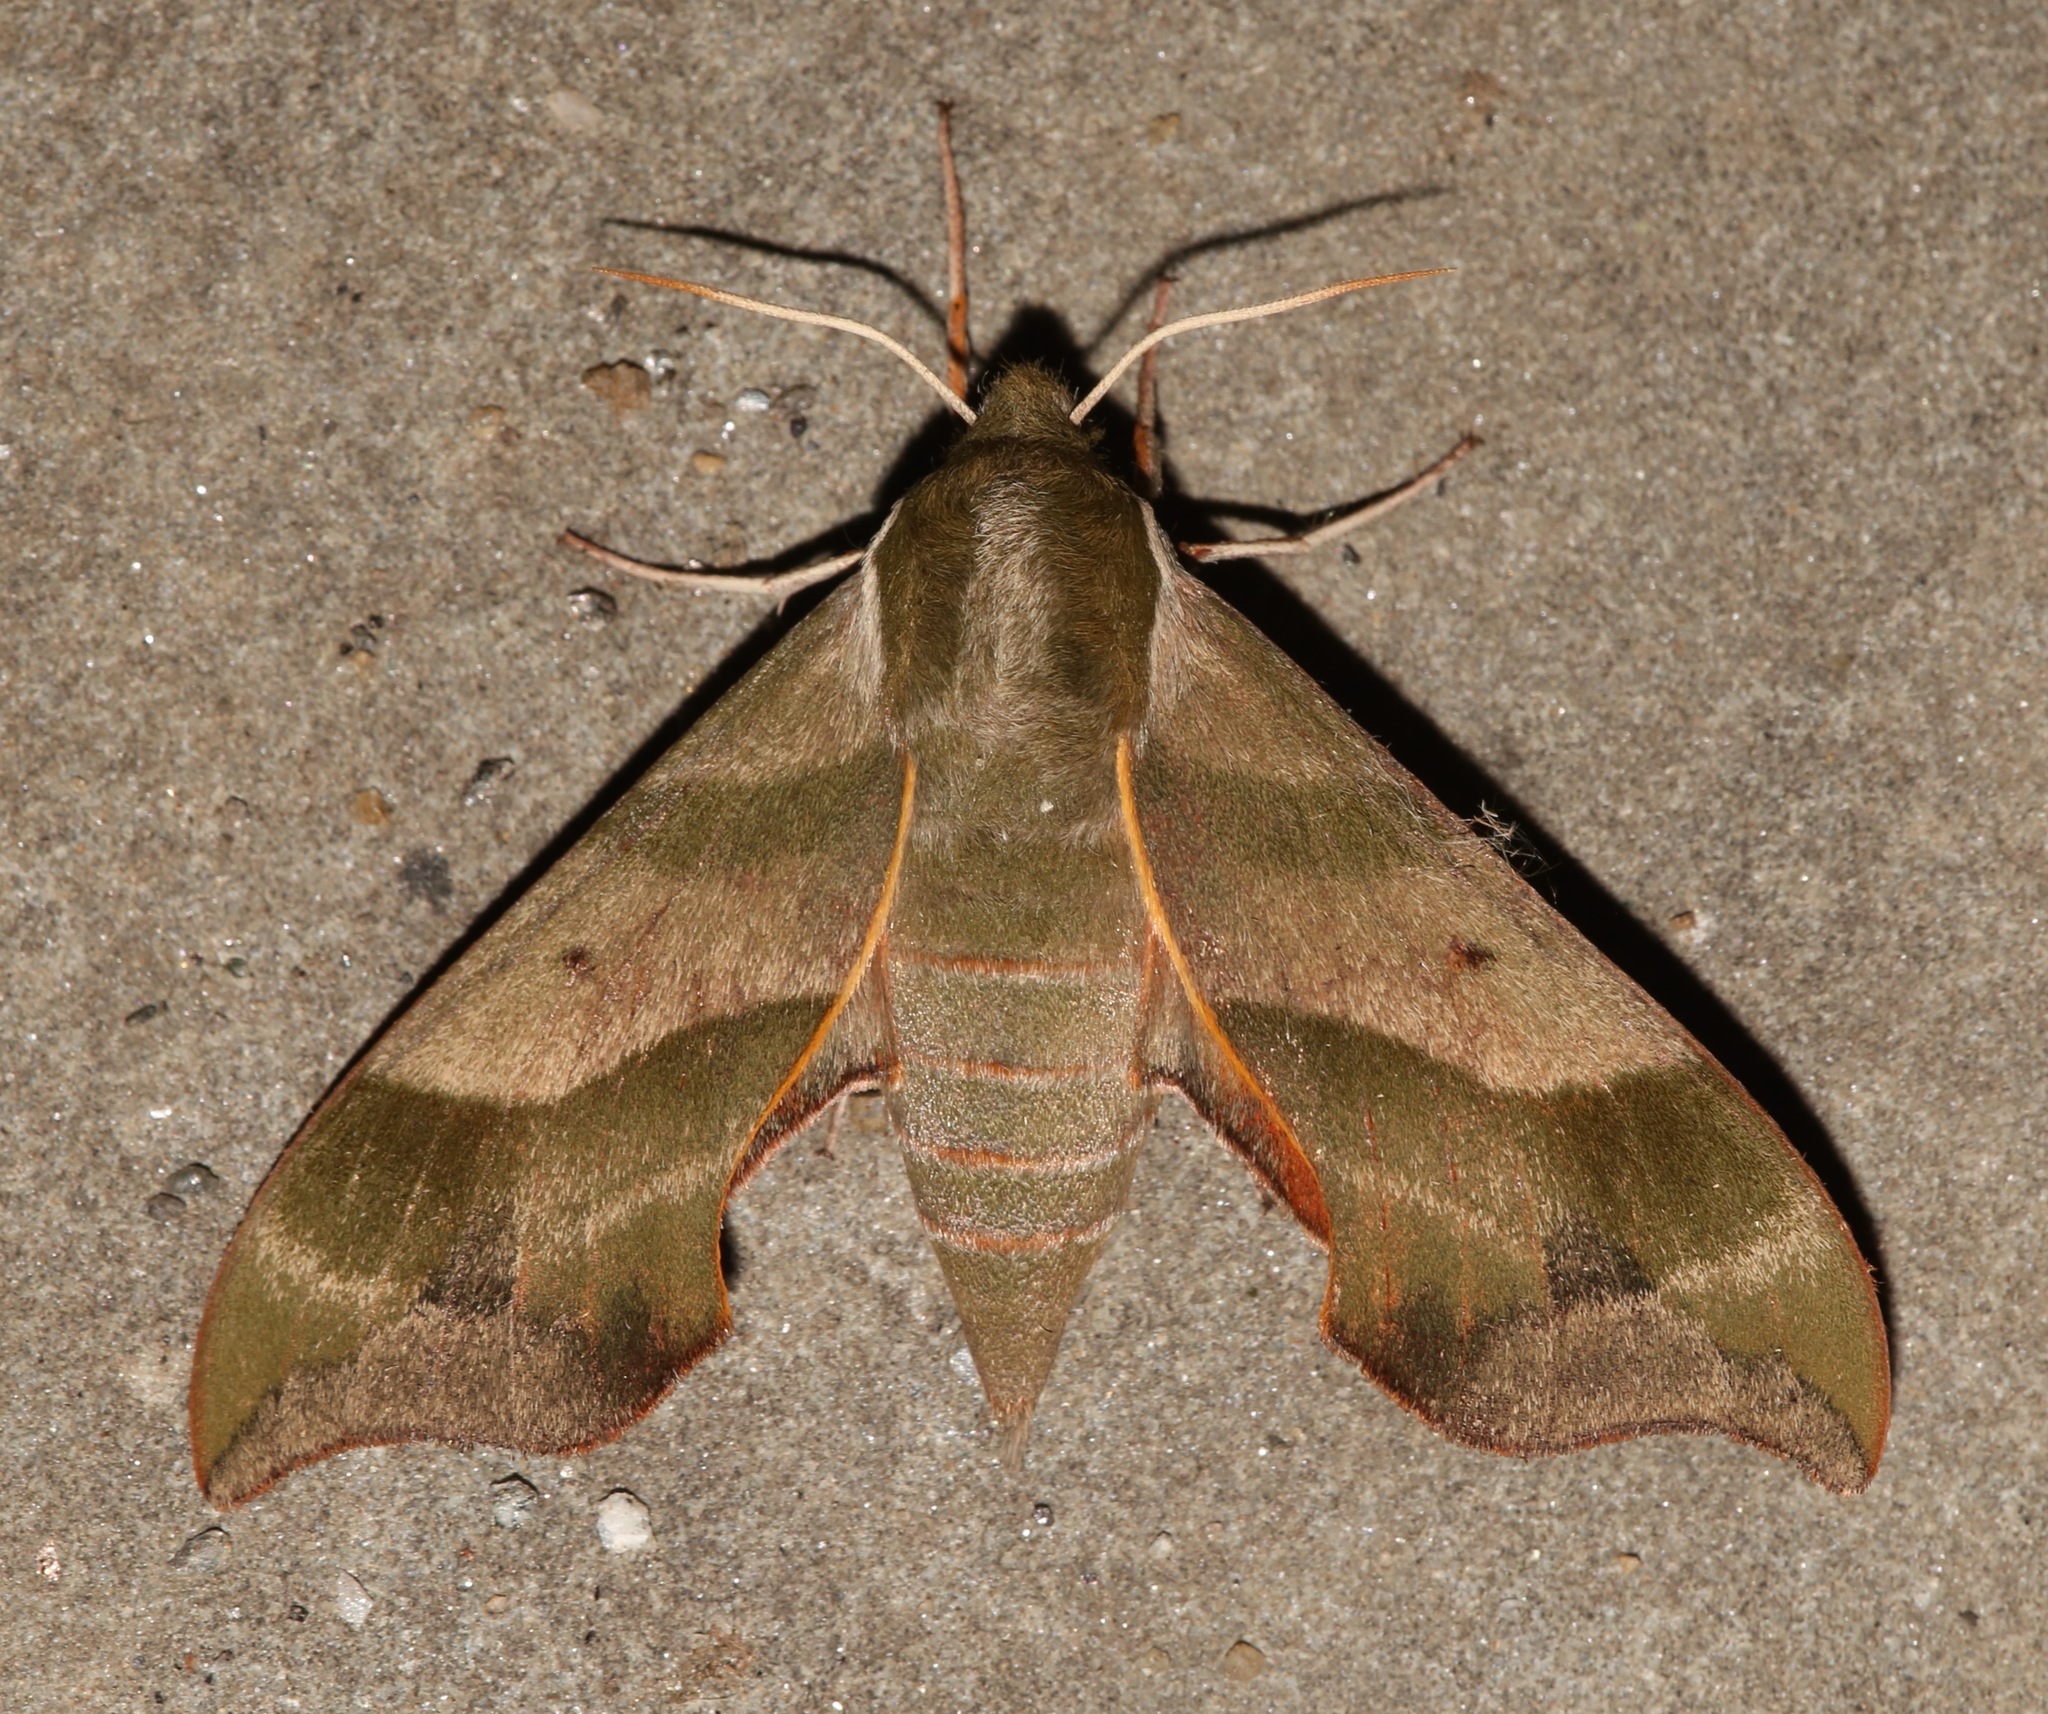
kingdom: Animalia
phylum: Arthropoda
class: Insecta
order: Lepidoptera
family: Sphingidae
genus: Darapsa
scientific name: Darapsa myron
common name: Hog sphinx
